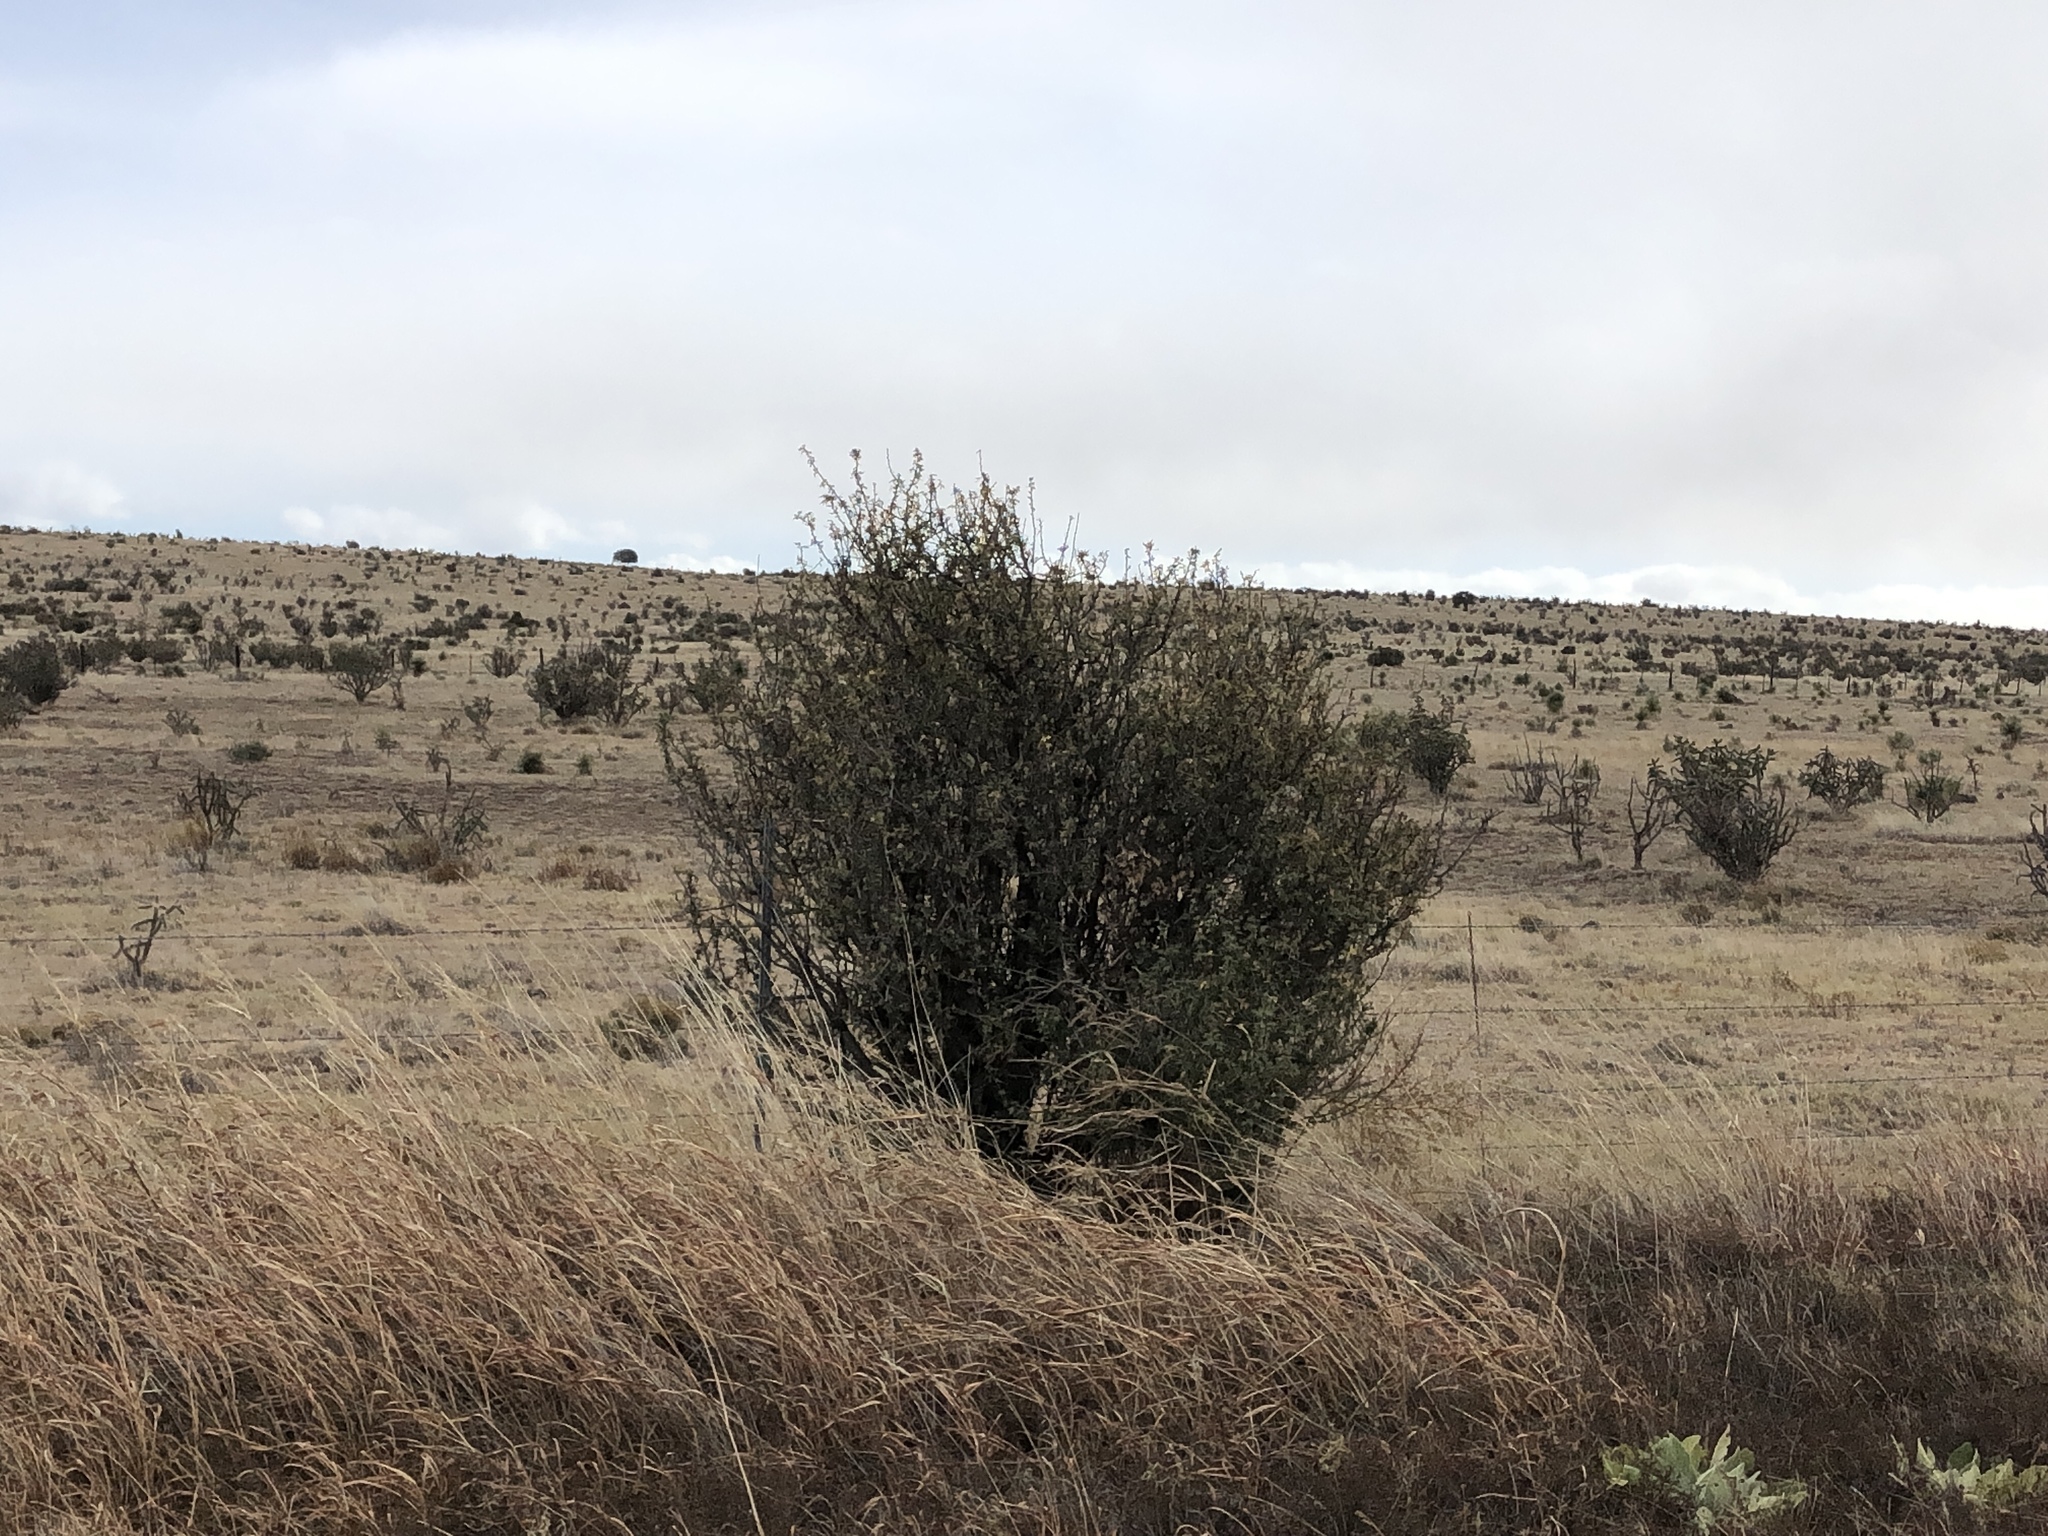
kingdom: Plantae
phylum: Tracheophyta
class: Magnoliopsida
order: Rosales
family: Rosaceae
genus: Fallugia
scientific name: Fallugia paradoxa
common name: Apache-plume
